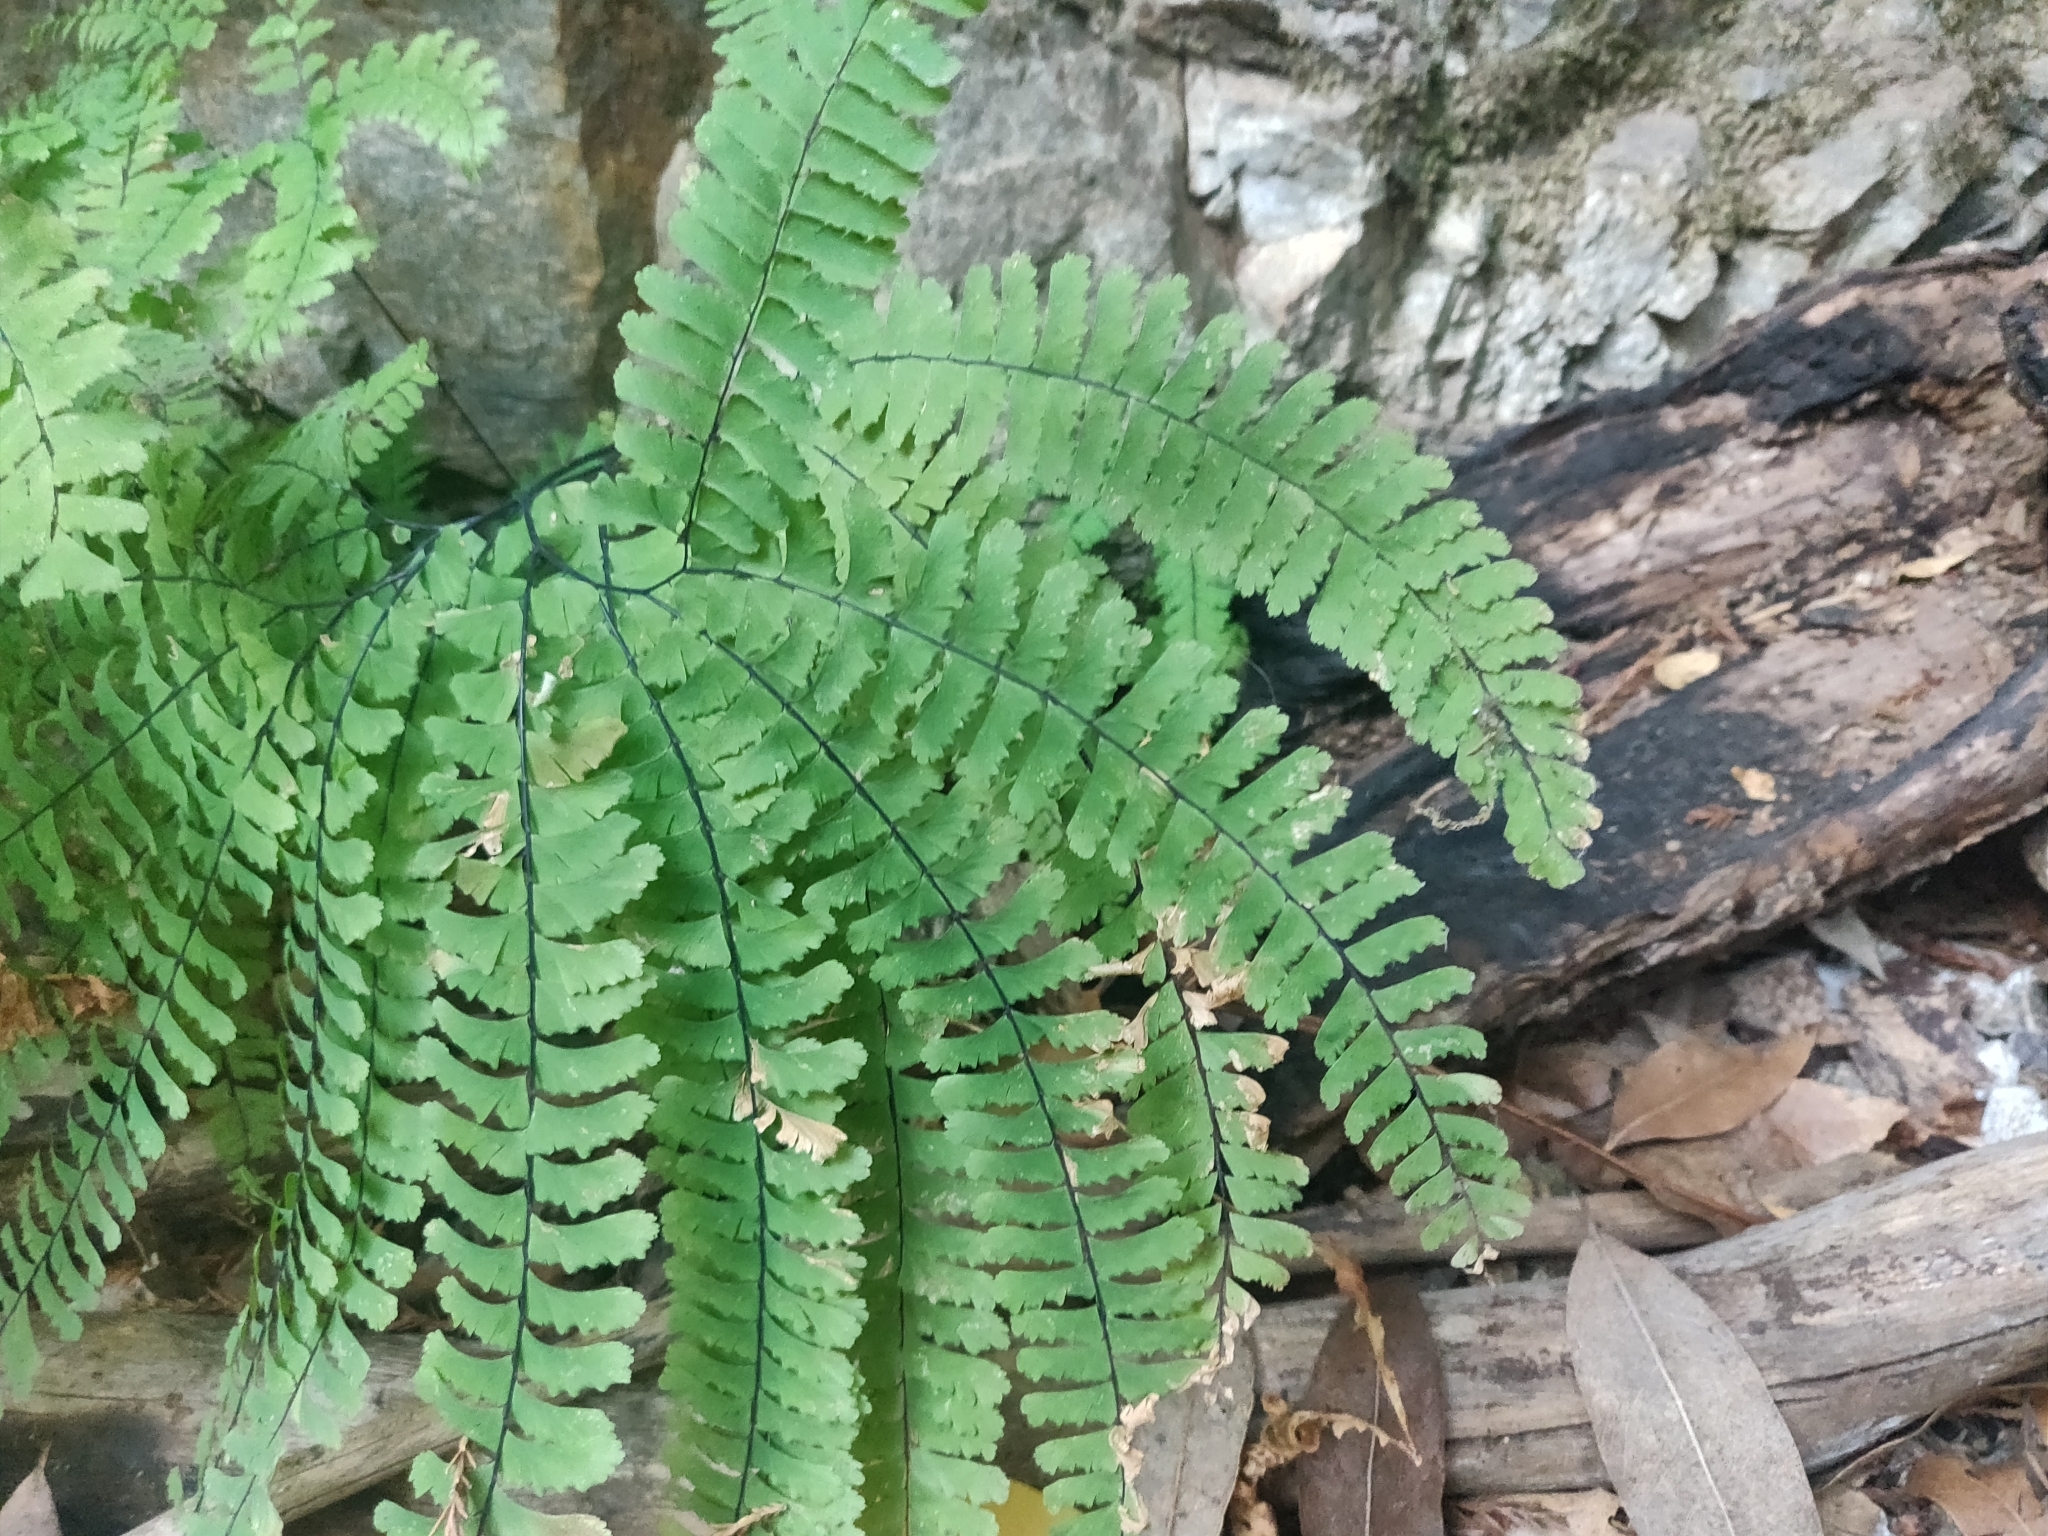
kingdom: Plantae
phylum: Tracheophyta
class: Polypodiopsida
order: Polypodiales
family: Pteridaceae
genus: Adiantum
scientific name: Adiantum aleuticum
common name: Aleutian maidenhair fern
